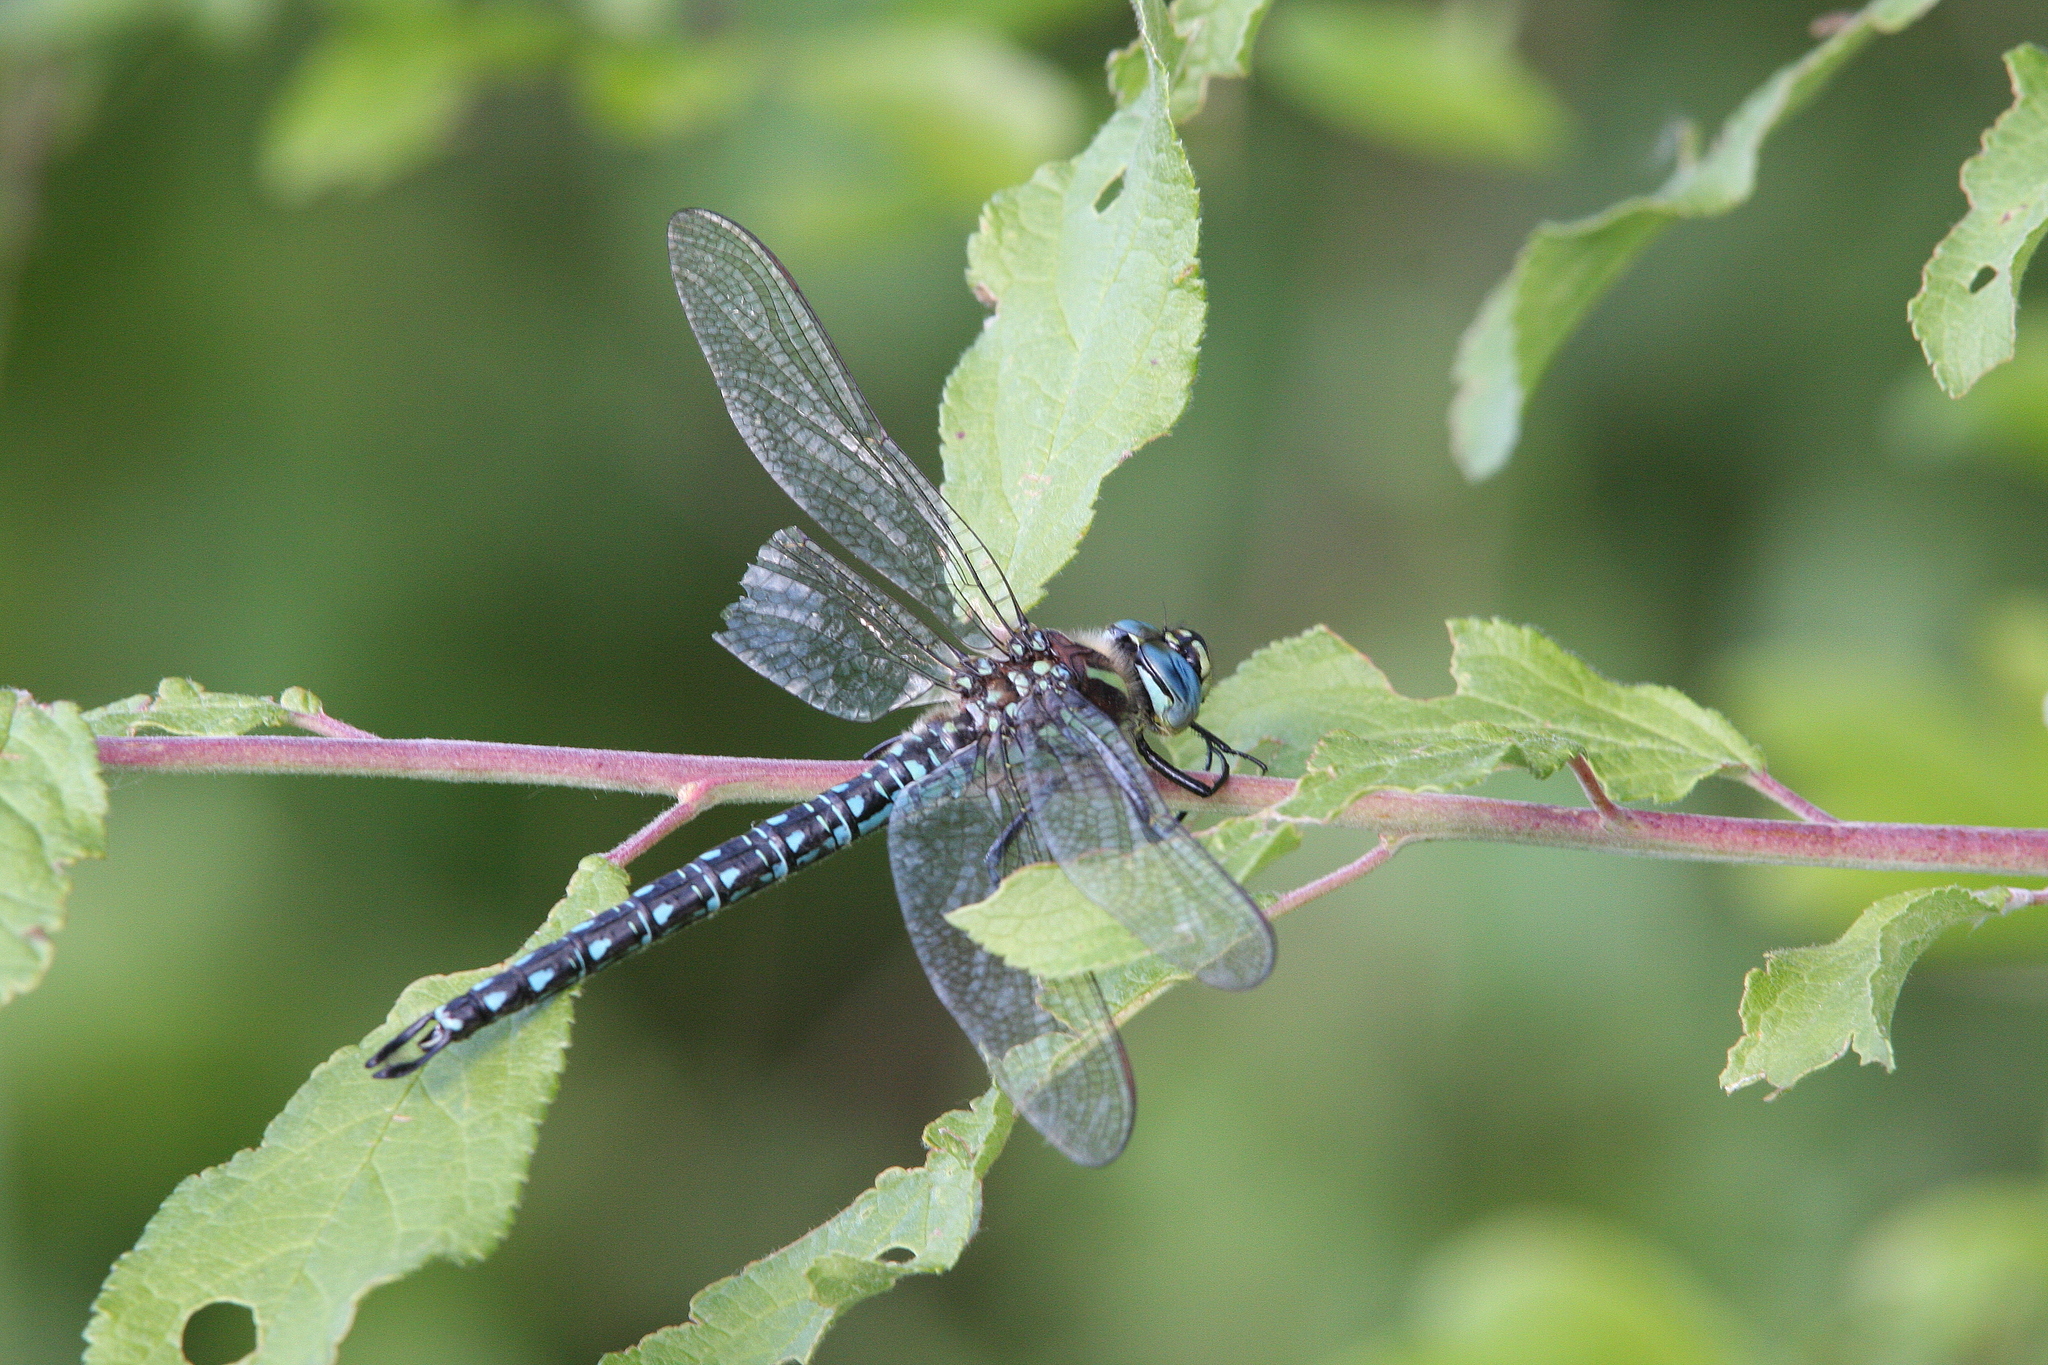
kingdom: Animalia
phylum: Arthropoda
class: Insecta
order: Odonata
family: Aeshnidae
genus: Brachytron
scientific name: Brachytron pratense
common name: Hairy hawker
